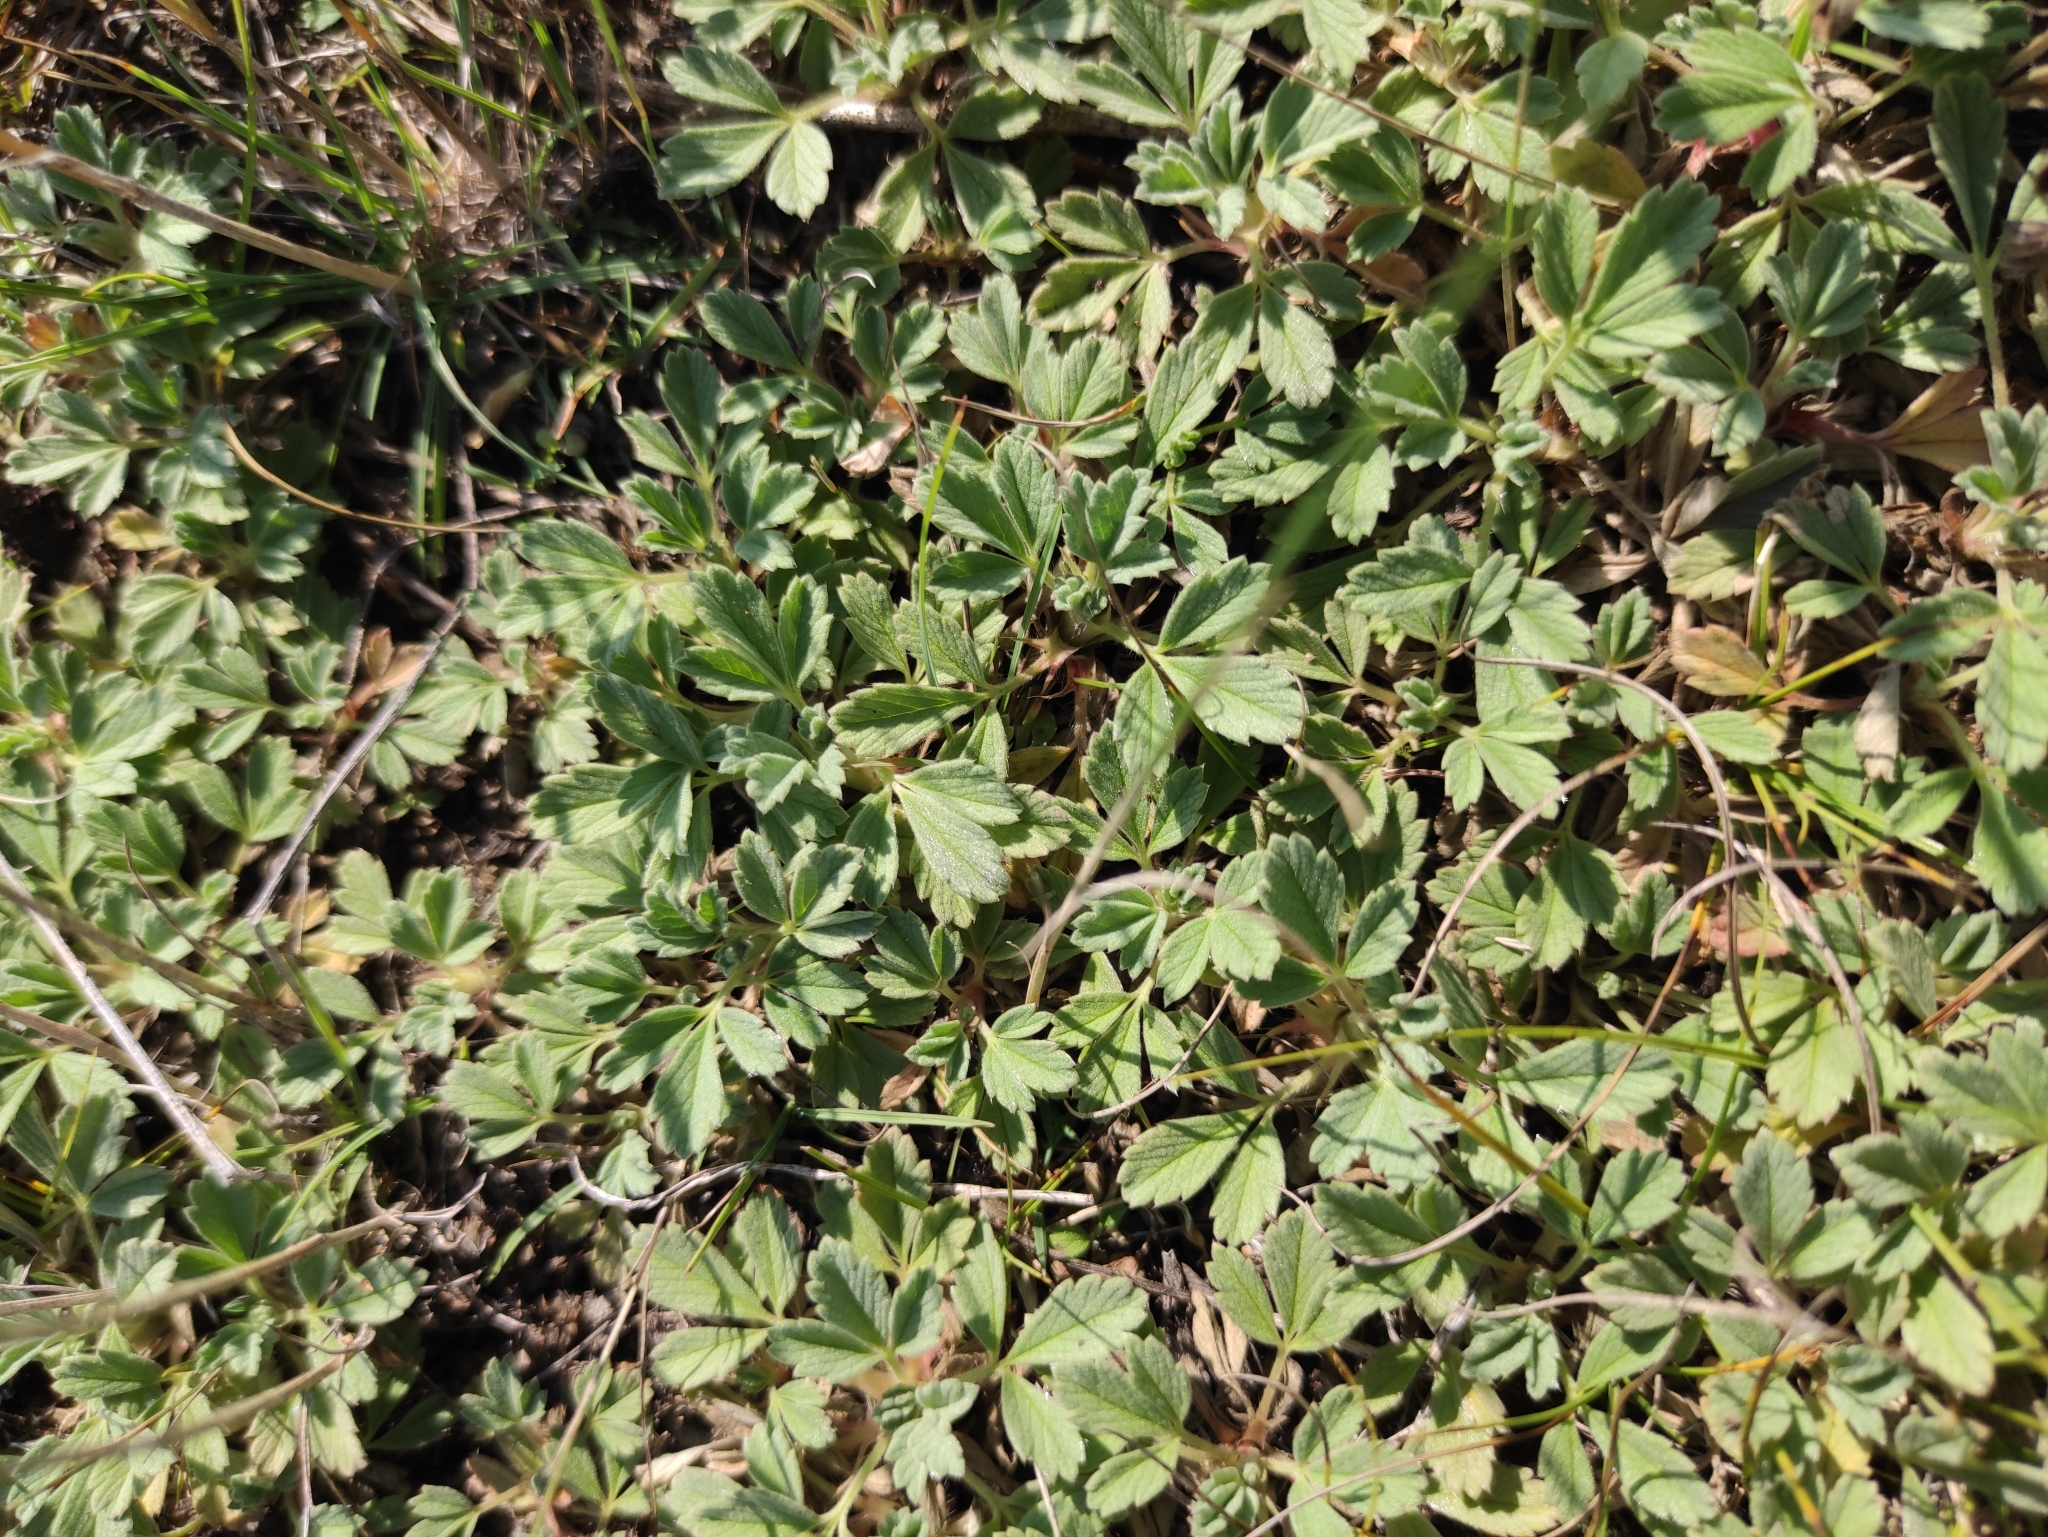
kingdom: Plantae
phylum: Tracheophyta
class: Magnoliopsida
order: Rosales
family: Rosaceae
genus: Potentilla
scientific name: Potentilla acaulis
